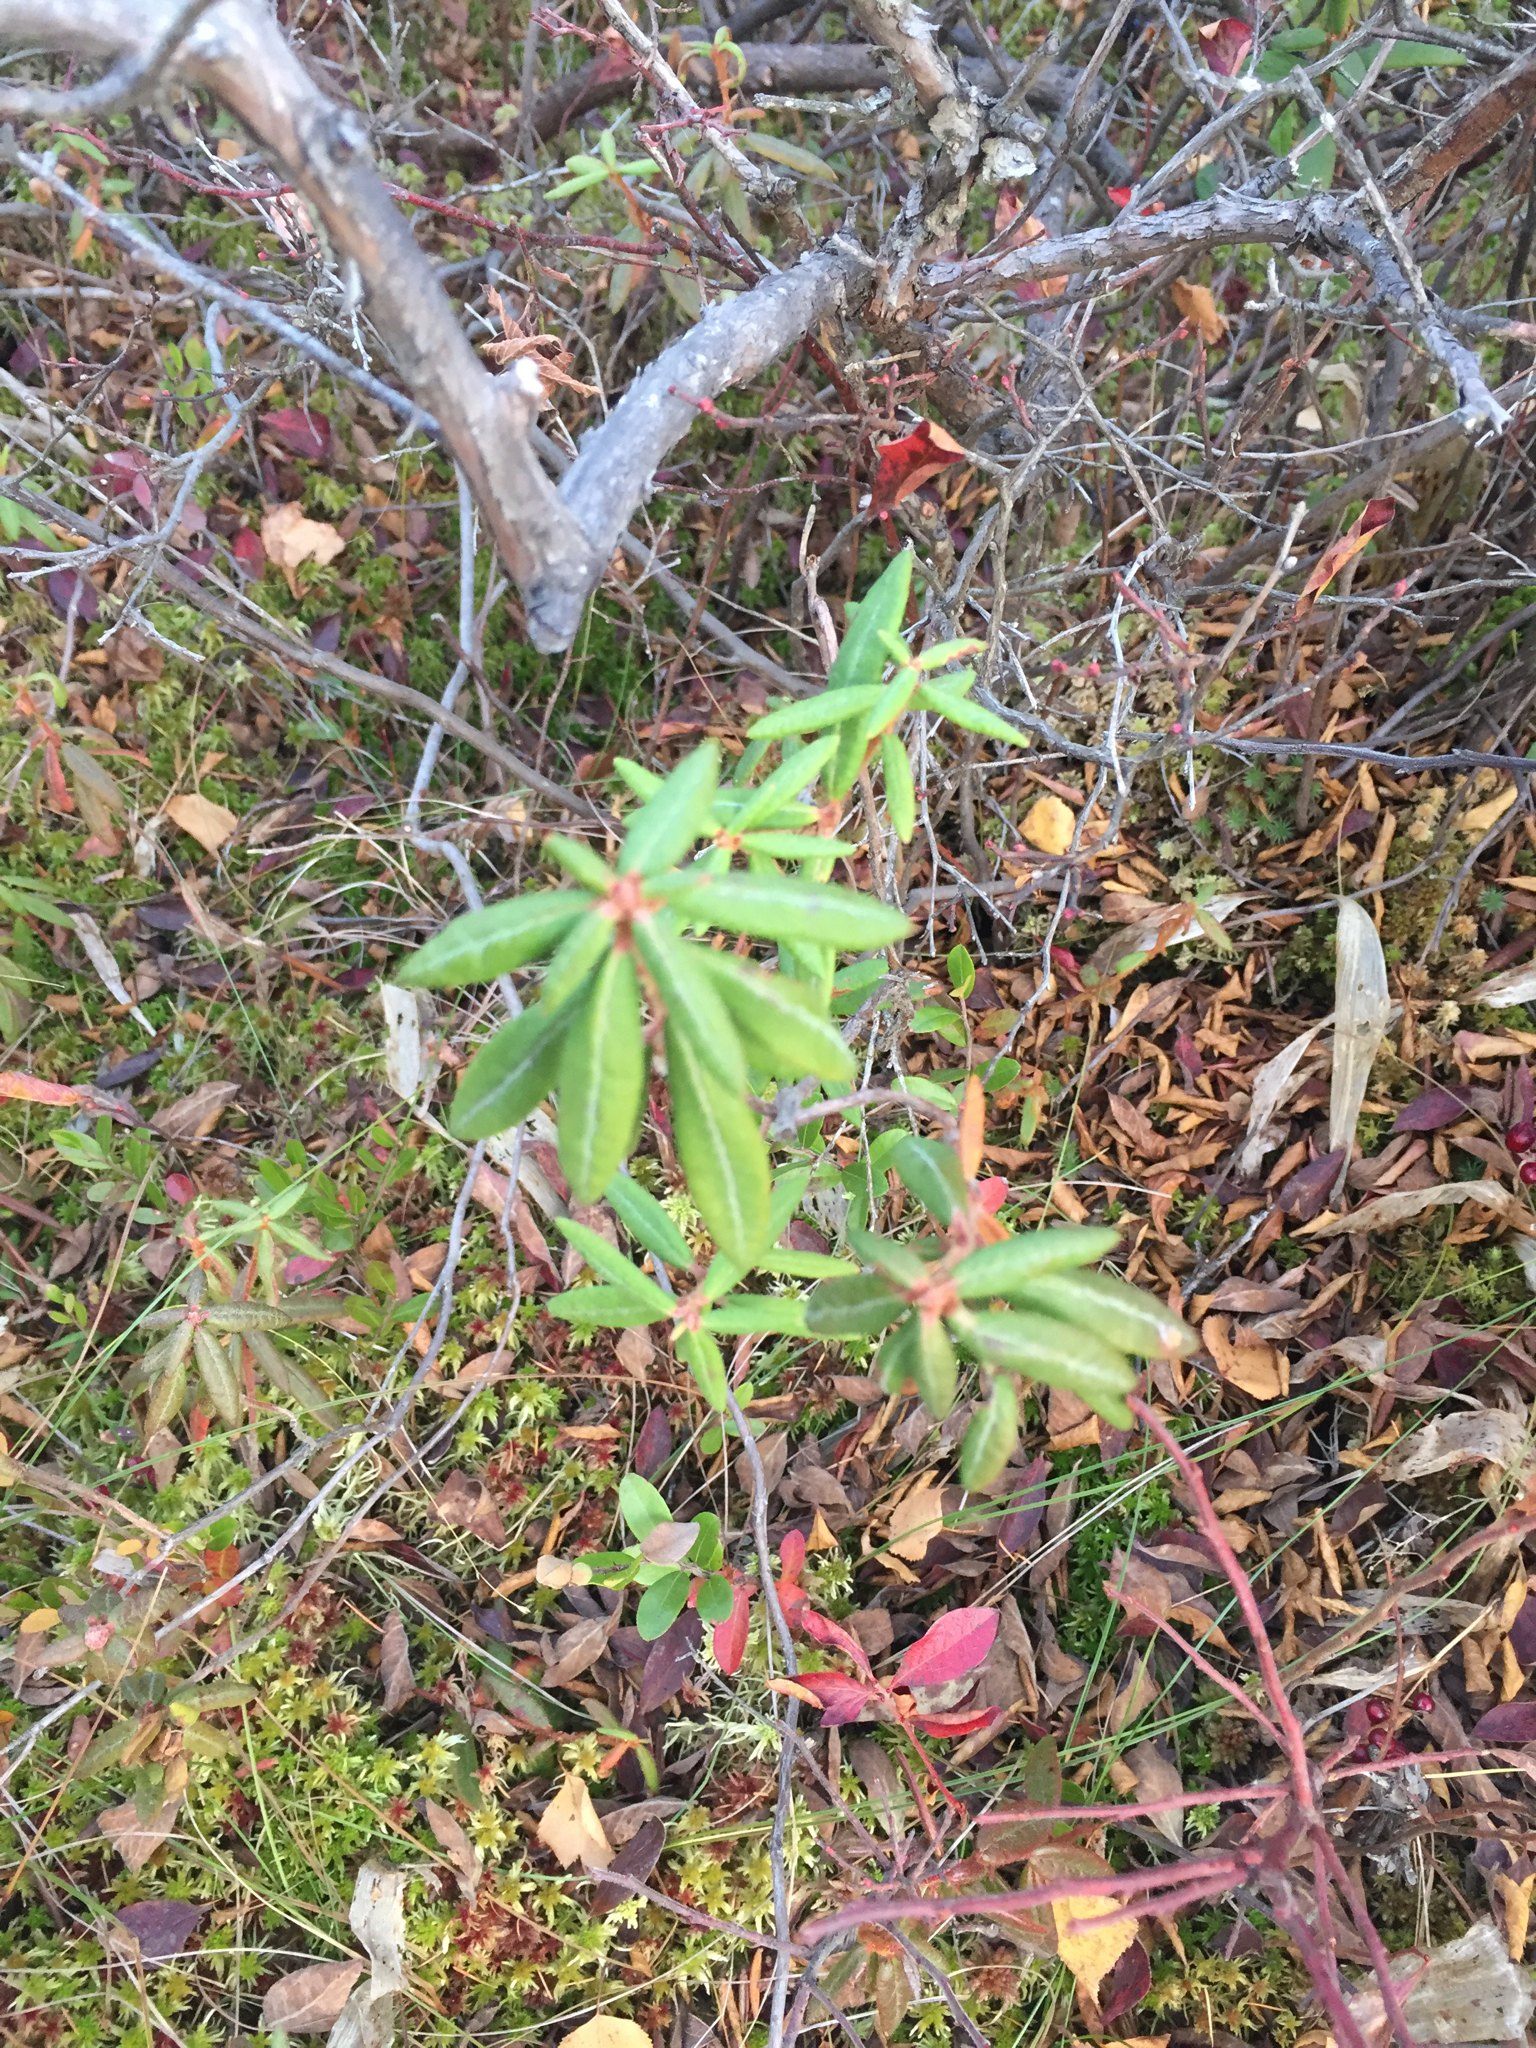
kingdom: Plantae
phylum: Tracheophyta
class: Magnoliopsida
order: Ericales
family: Ericaceae
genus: Rhododendron
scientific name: Rhododendron groenlandicum
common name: Bog labrador tea
